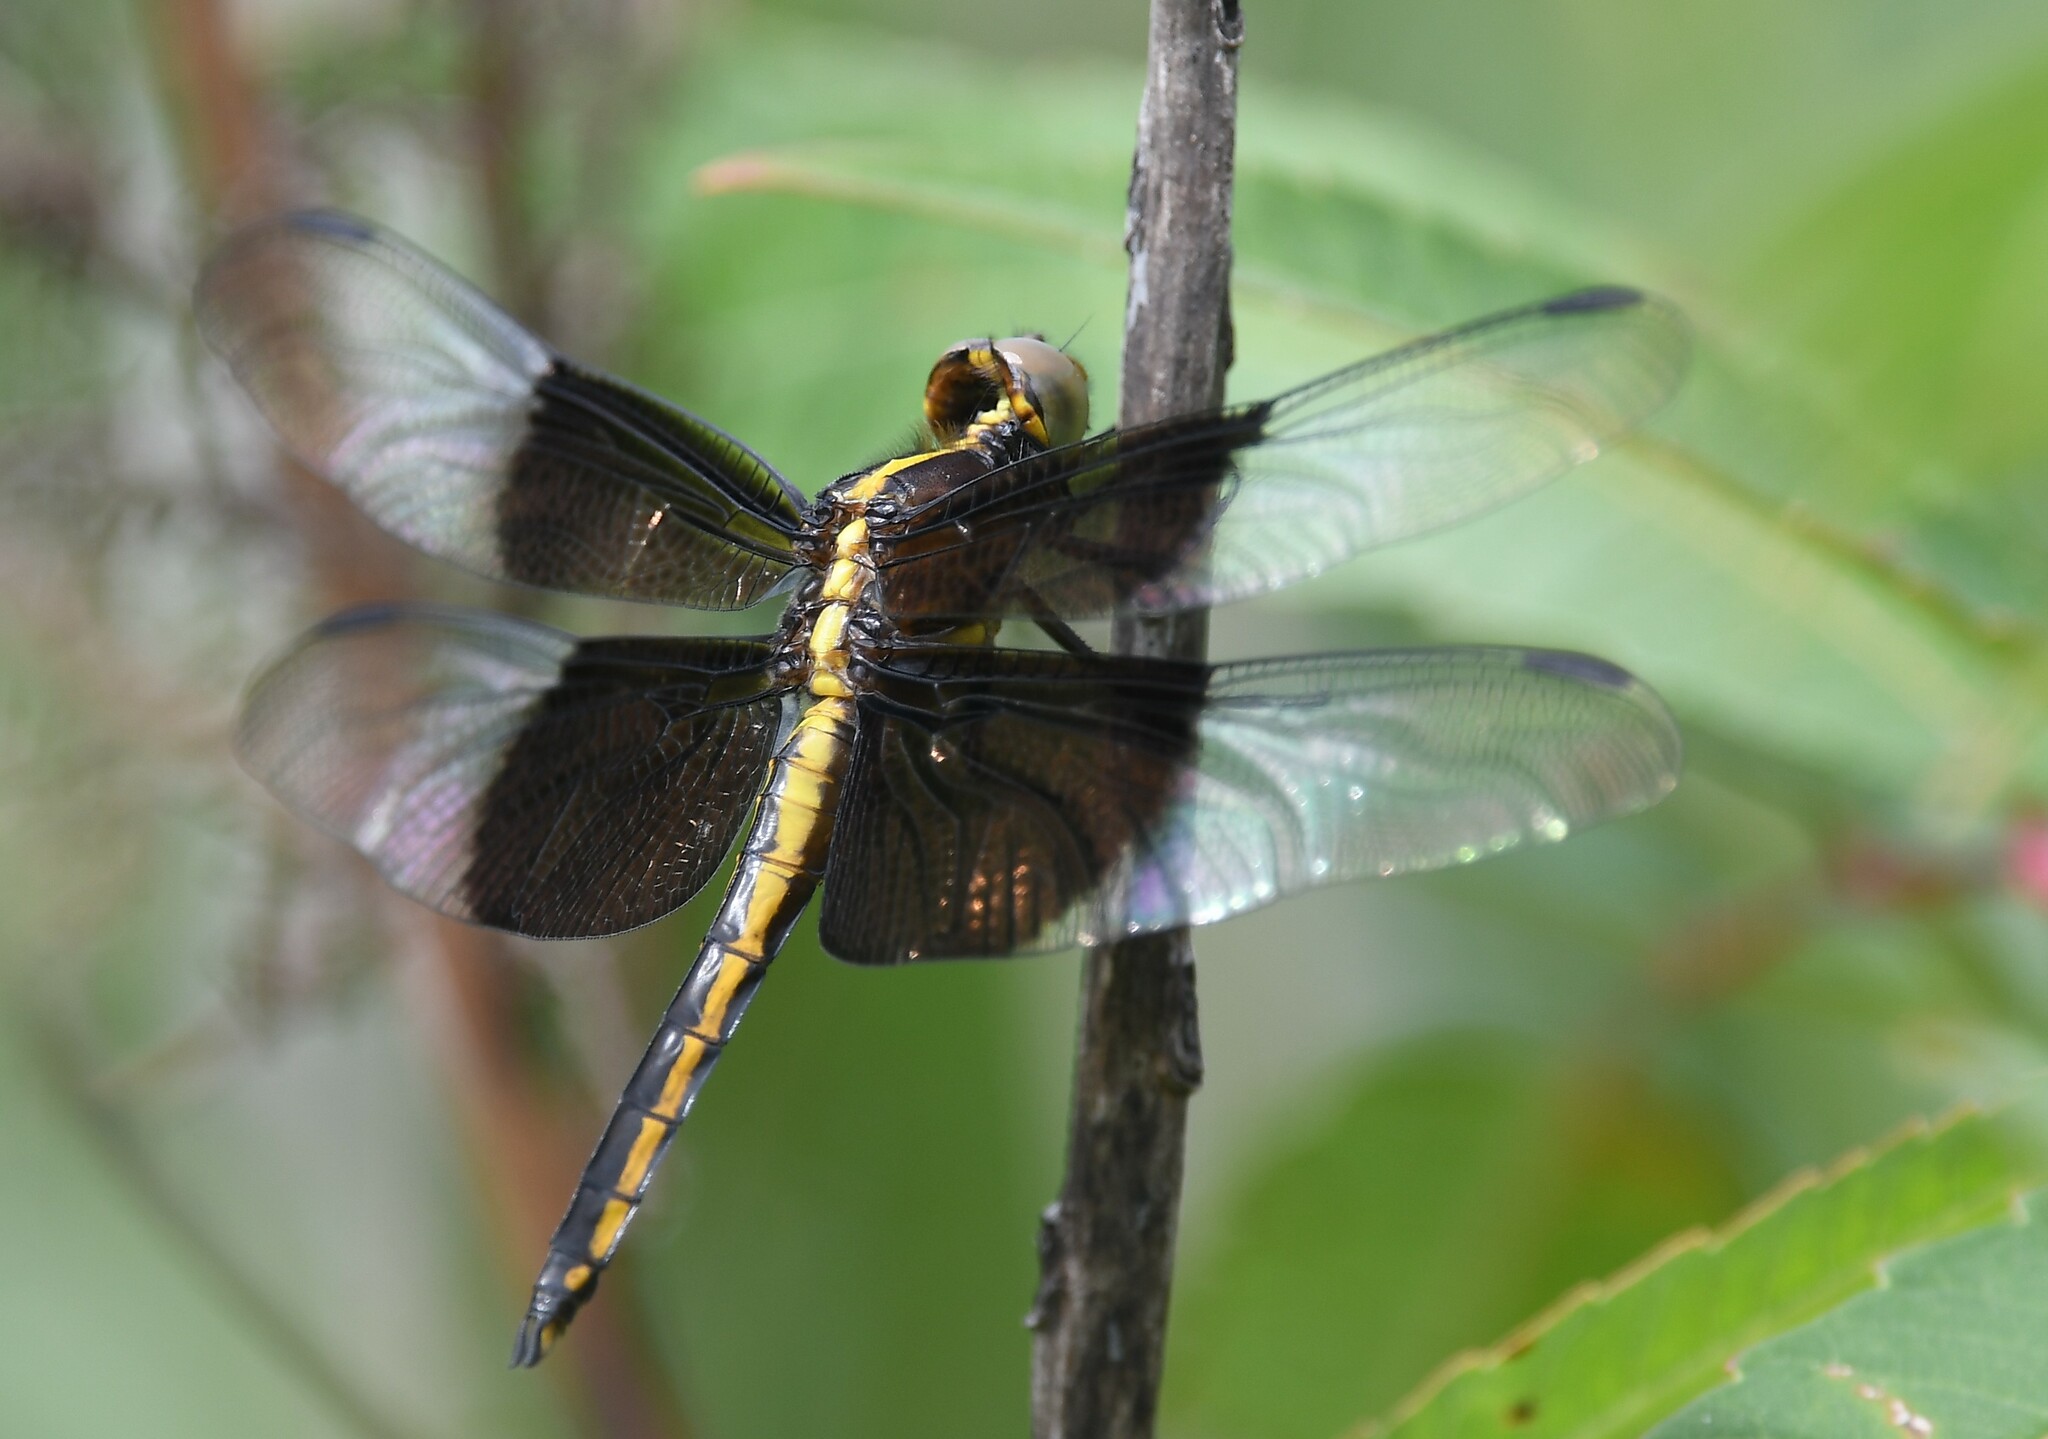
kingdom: Animalia
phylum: Arthropoda
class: Insecta
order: Odonata
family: Libellulidae
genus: Libellula
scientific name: Libellula luctuosa
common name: Widow skimmer
